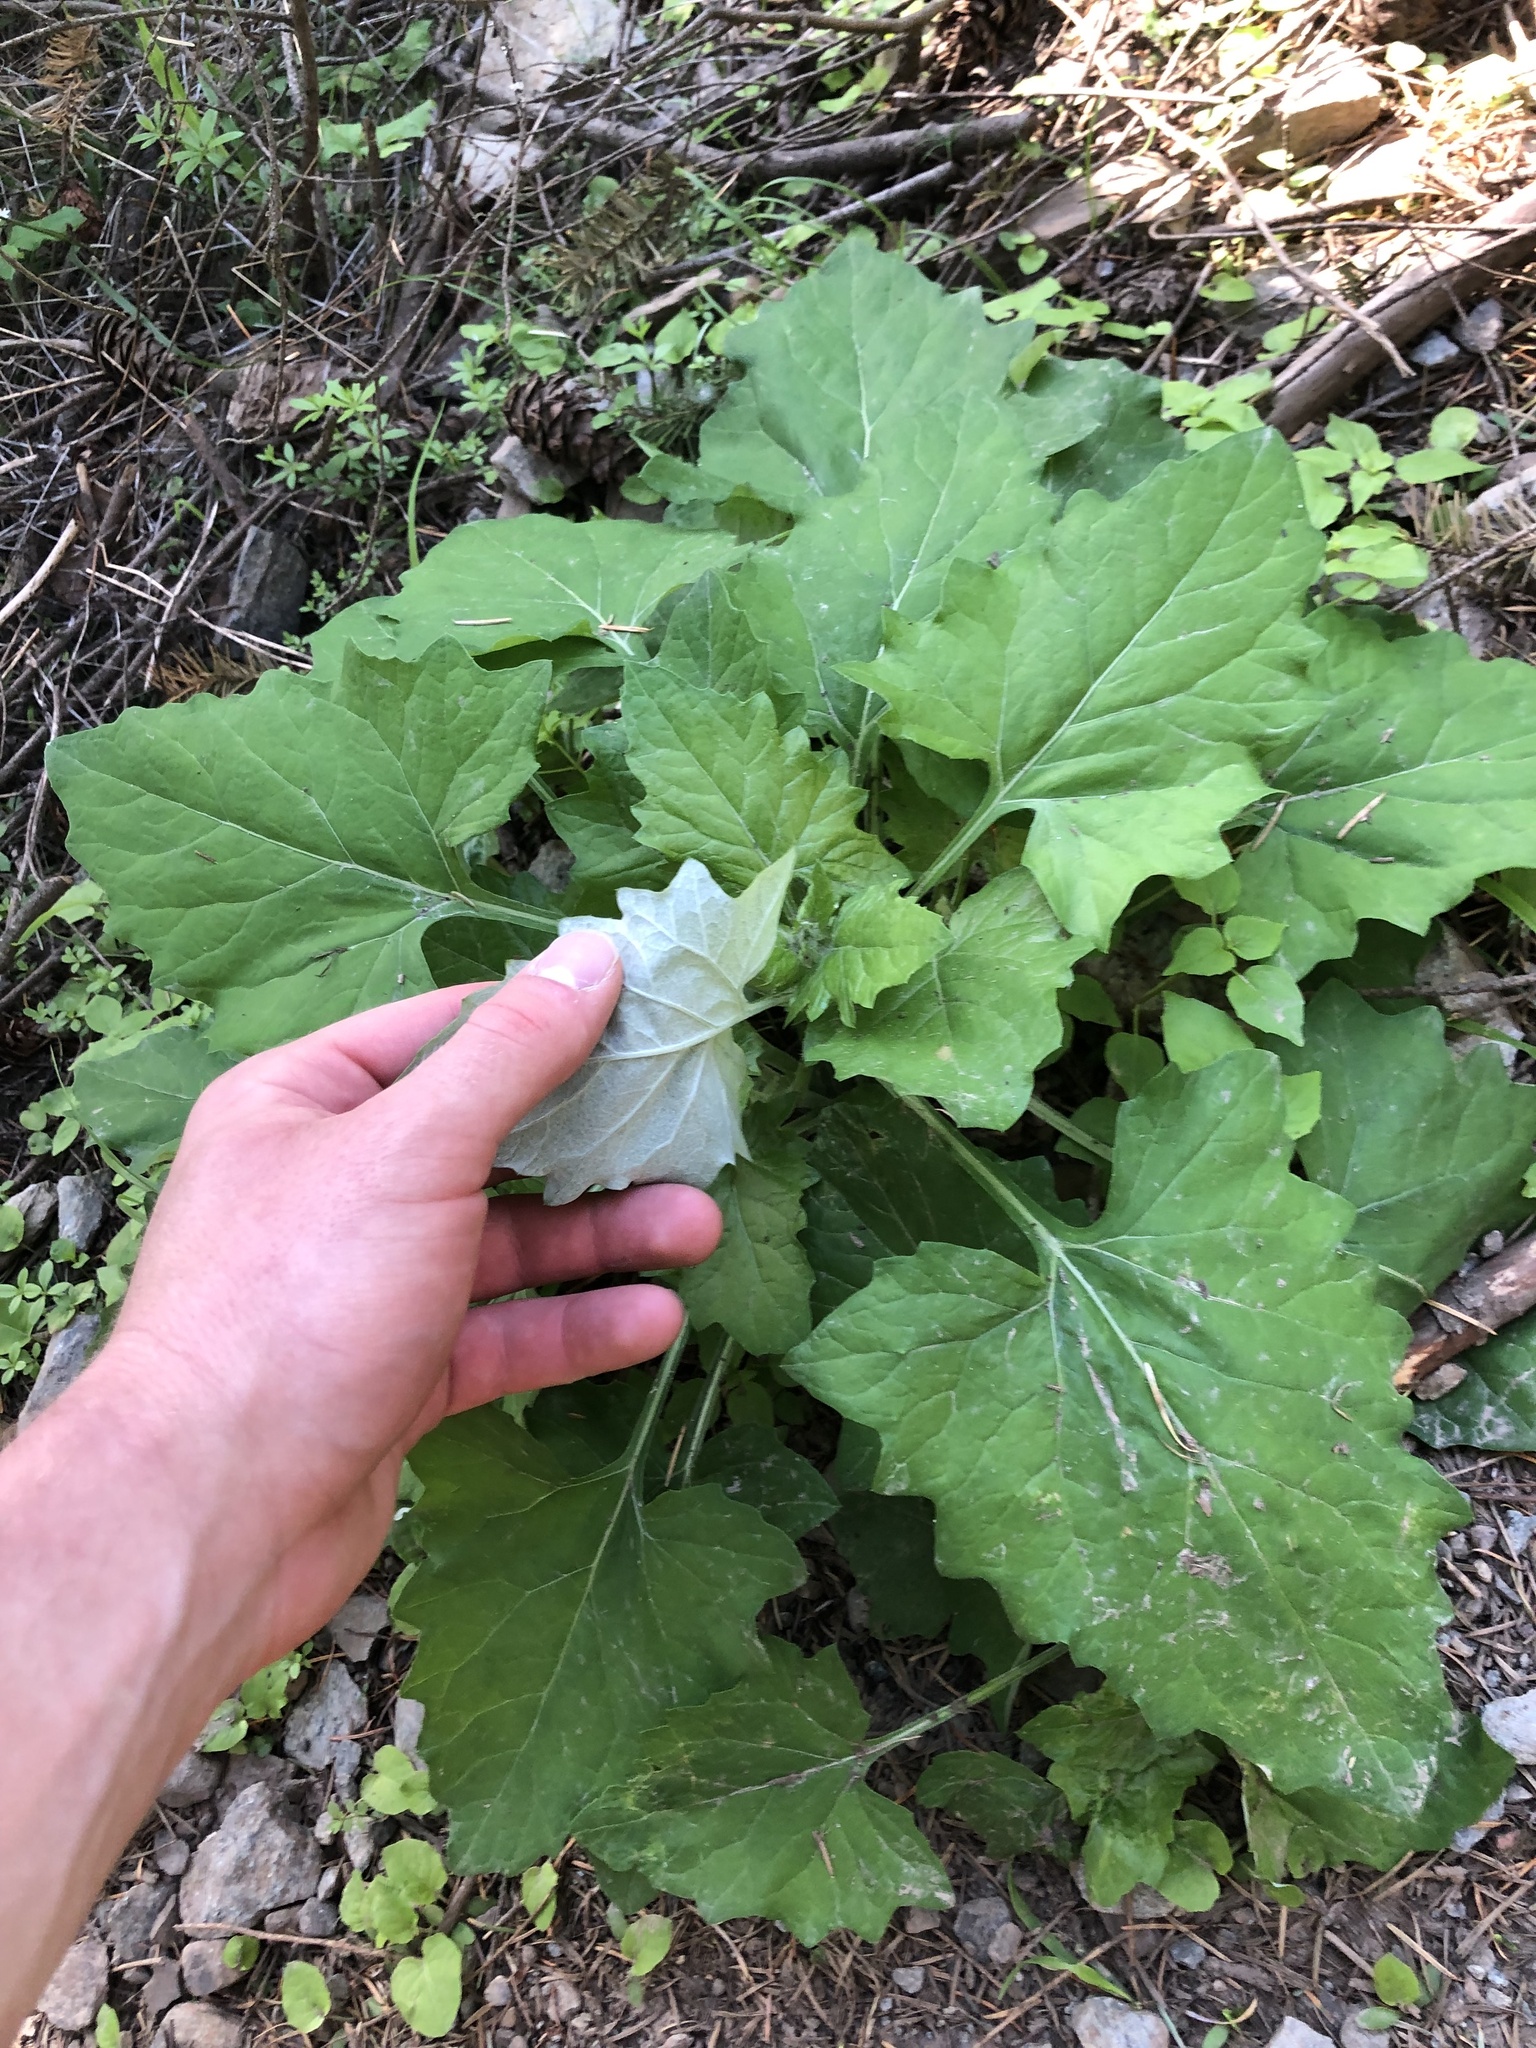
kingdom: Plantae
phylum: Tracheophyta
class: Magnoliopsida
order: Asterales
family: Asteraceae
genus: Adenocaulon
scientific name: Adenocaulon bicolor
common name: Trailplant
